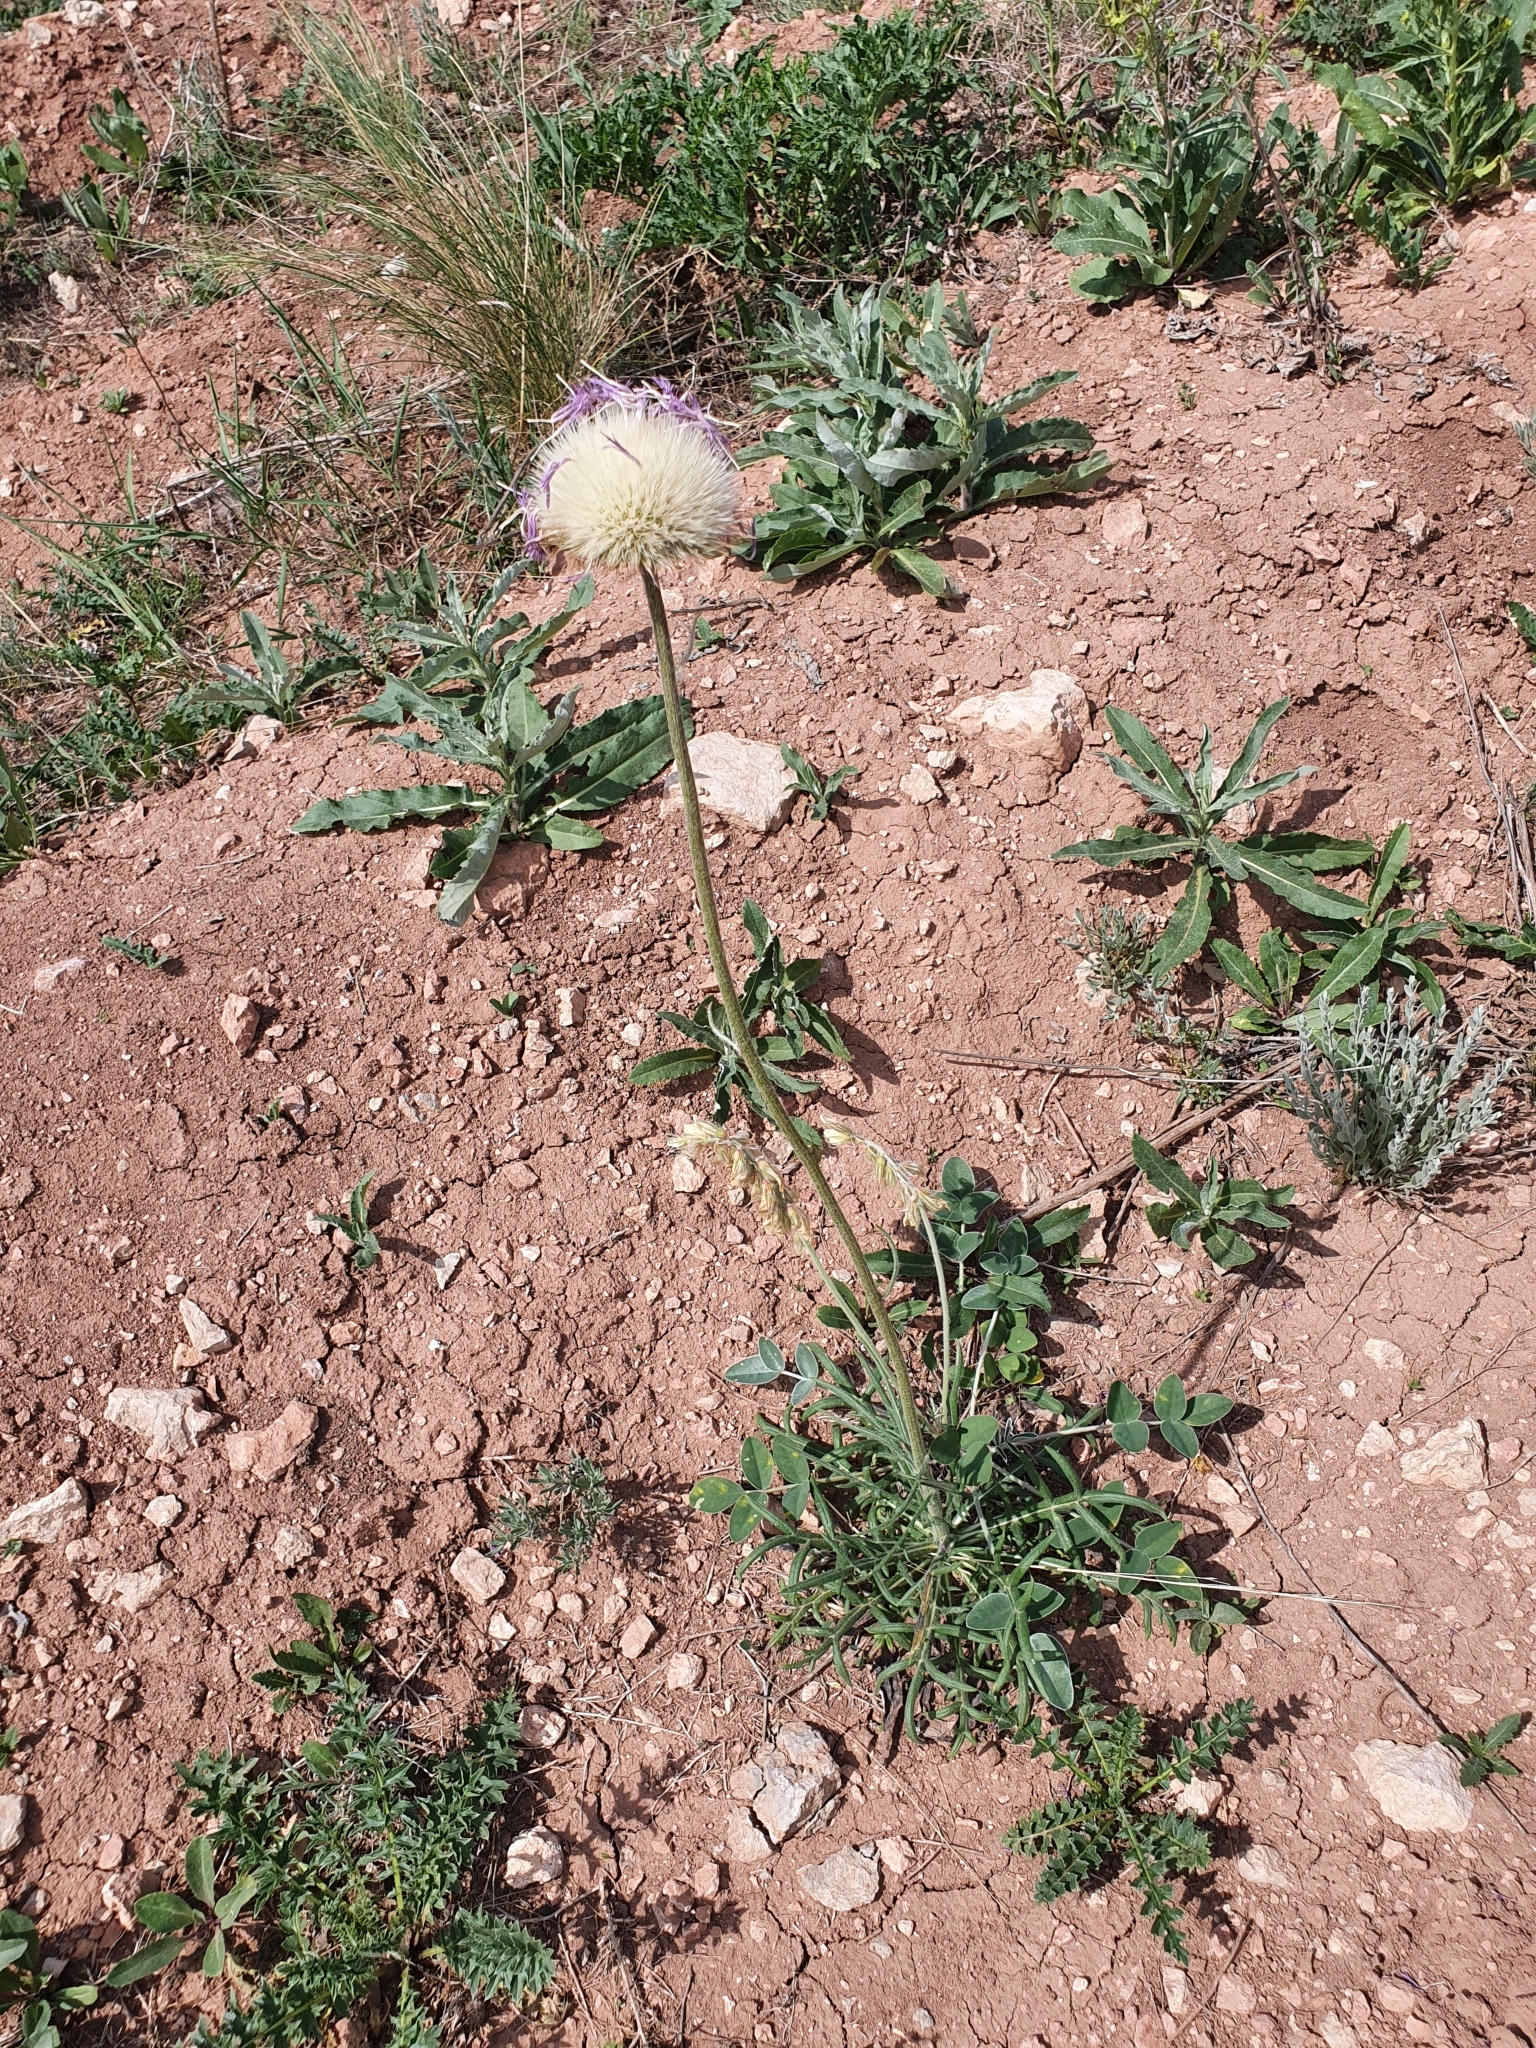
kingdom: Plantae
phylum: Tracheophyta
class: Magnoliopsida
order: Asterales
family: Asteraceae
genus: Jurinea
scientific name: Jurinea ledebourii
